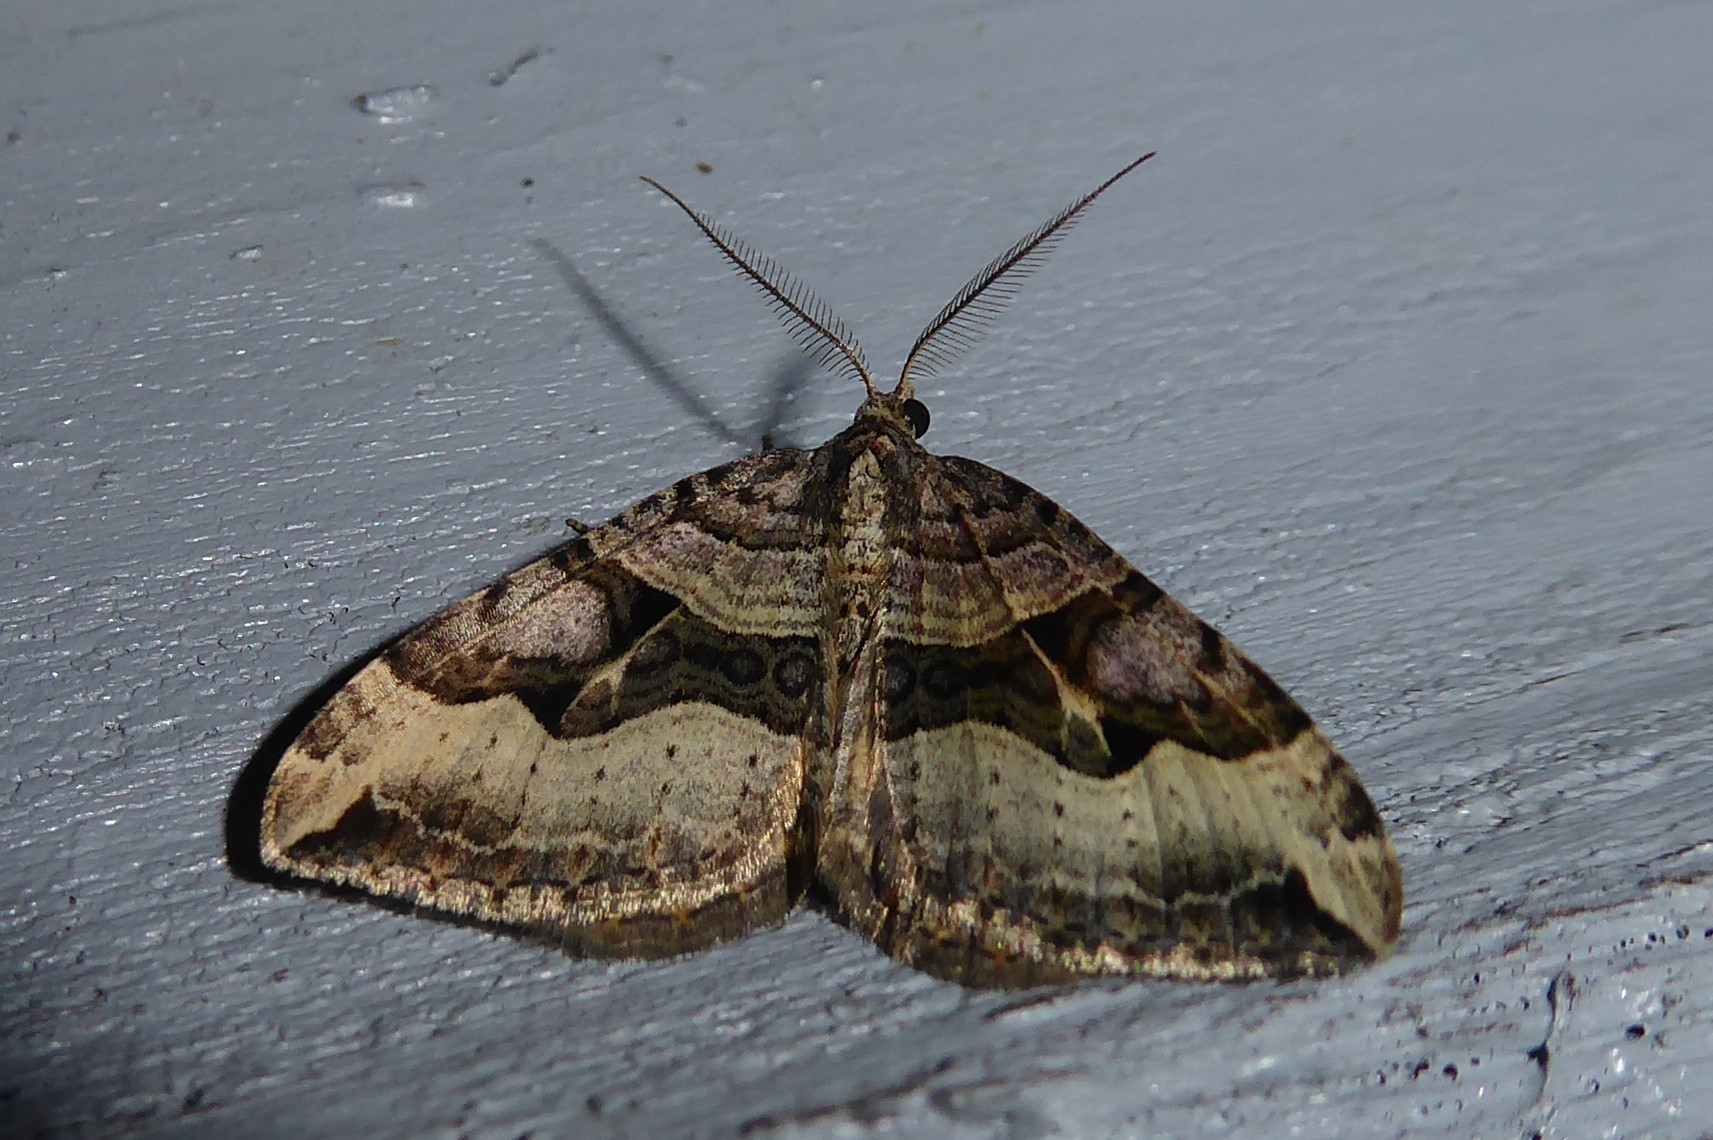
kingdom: Animalia
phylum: Arthropoda
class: Insecta
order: Lepidoptera
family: Geometridae
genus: Xanthorhoe
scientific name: Xanthorhoe semifissata
